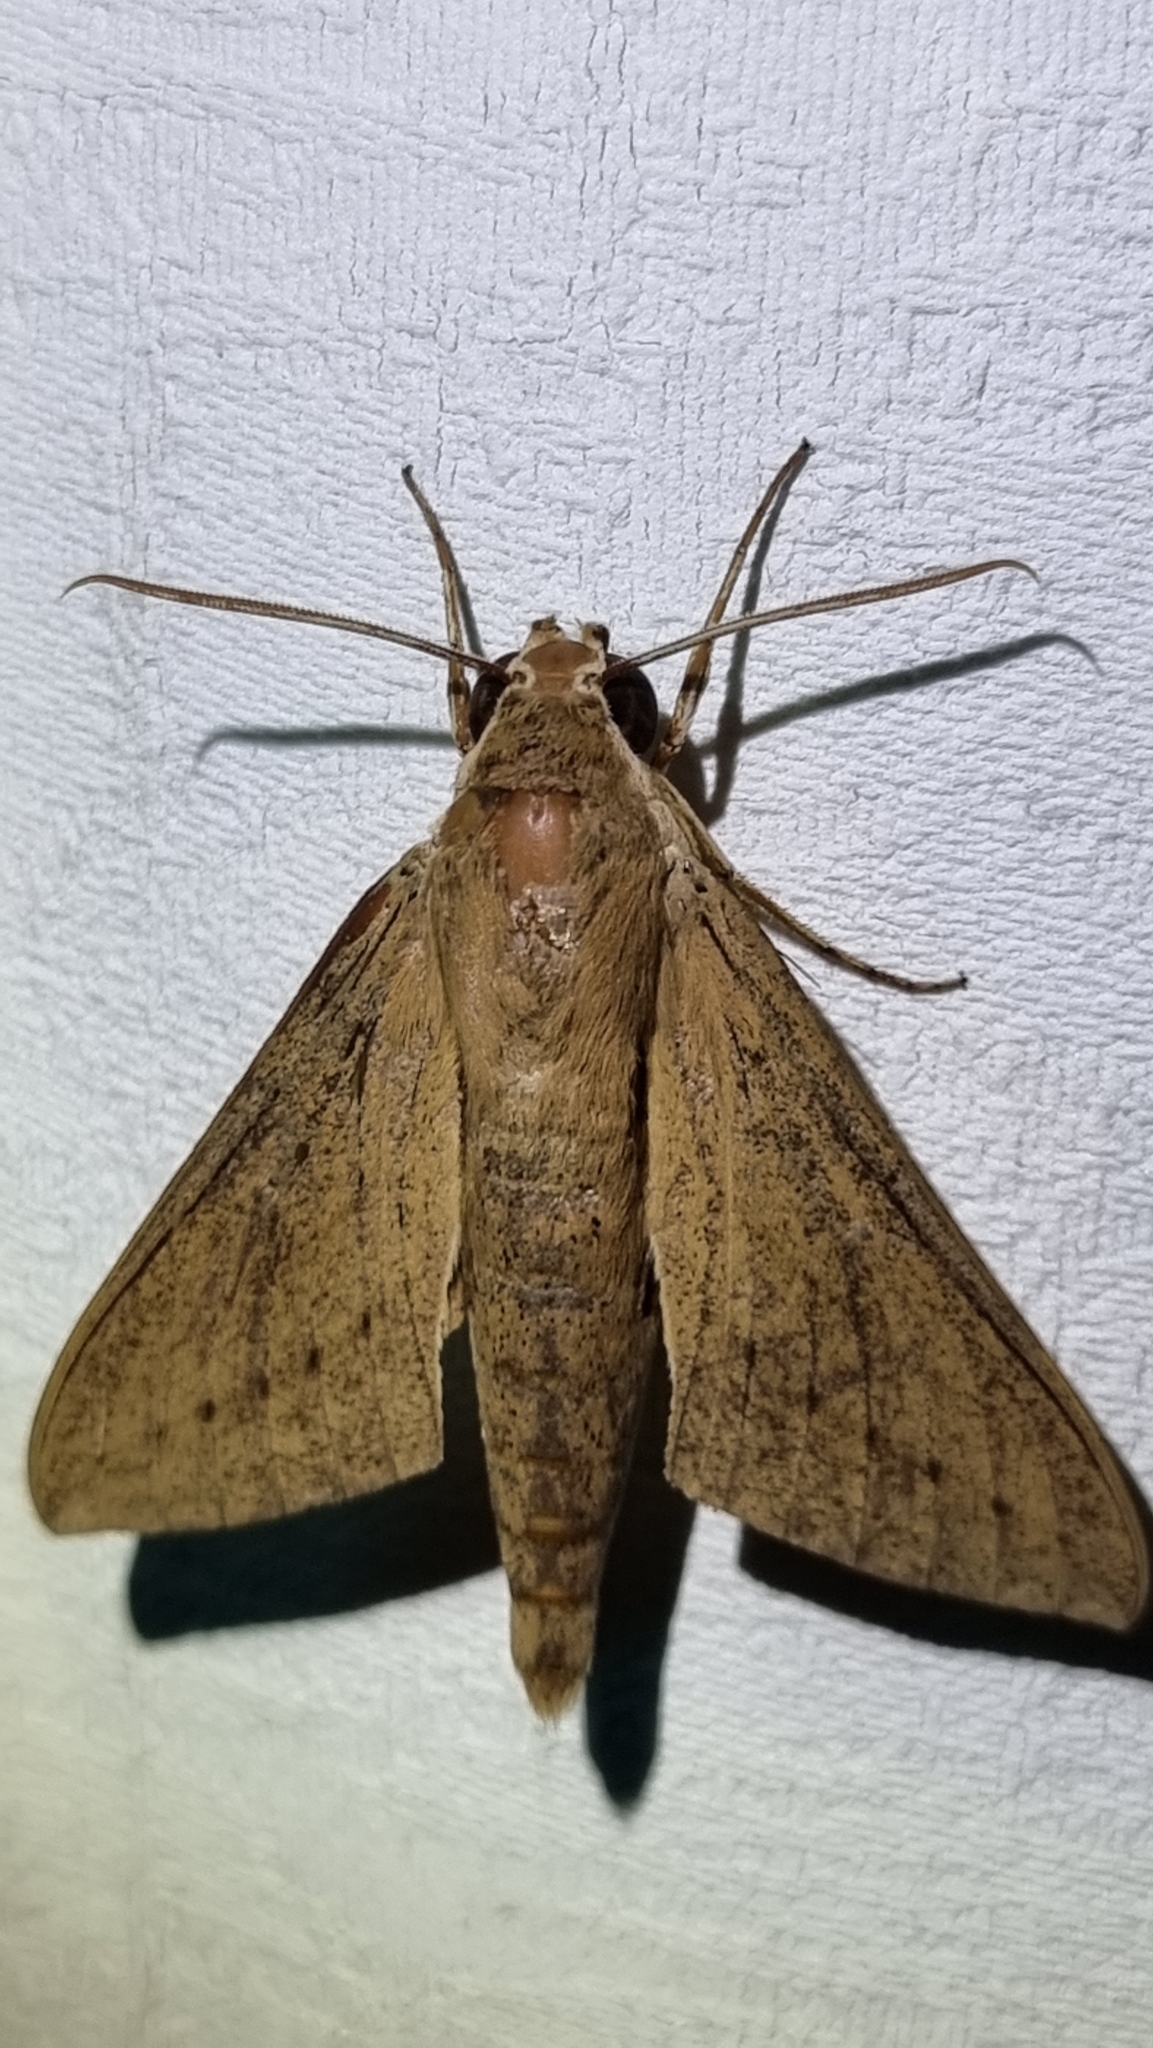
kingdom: Animalia
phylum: Arthropoda
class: Insecta
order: Lepidoptera
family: Sphingidae
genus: Theretra
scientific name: Theretra latreillii
